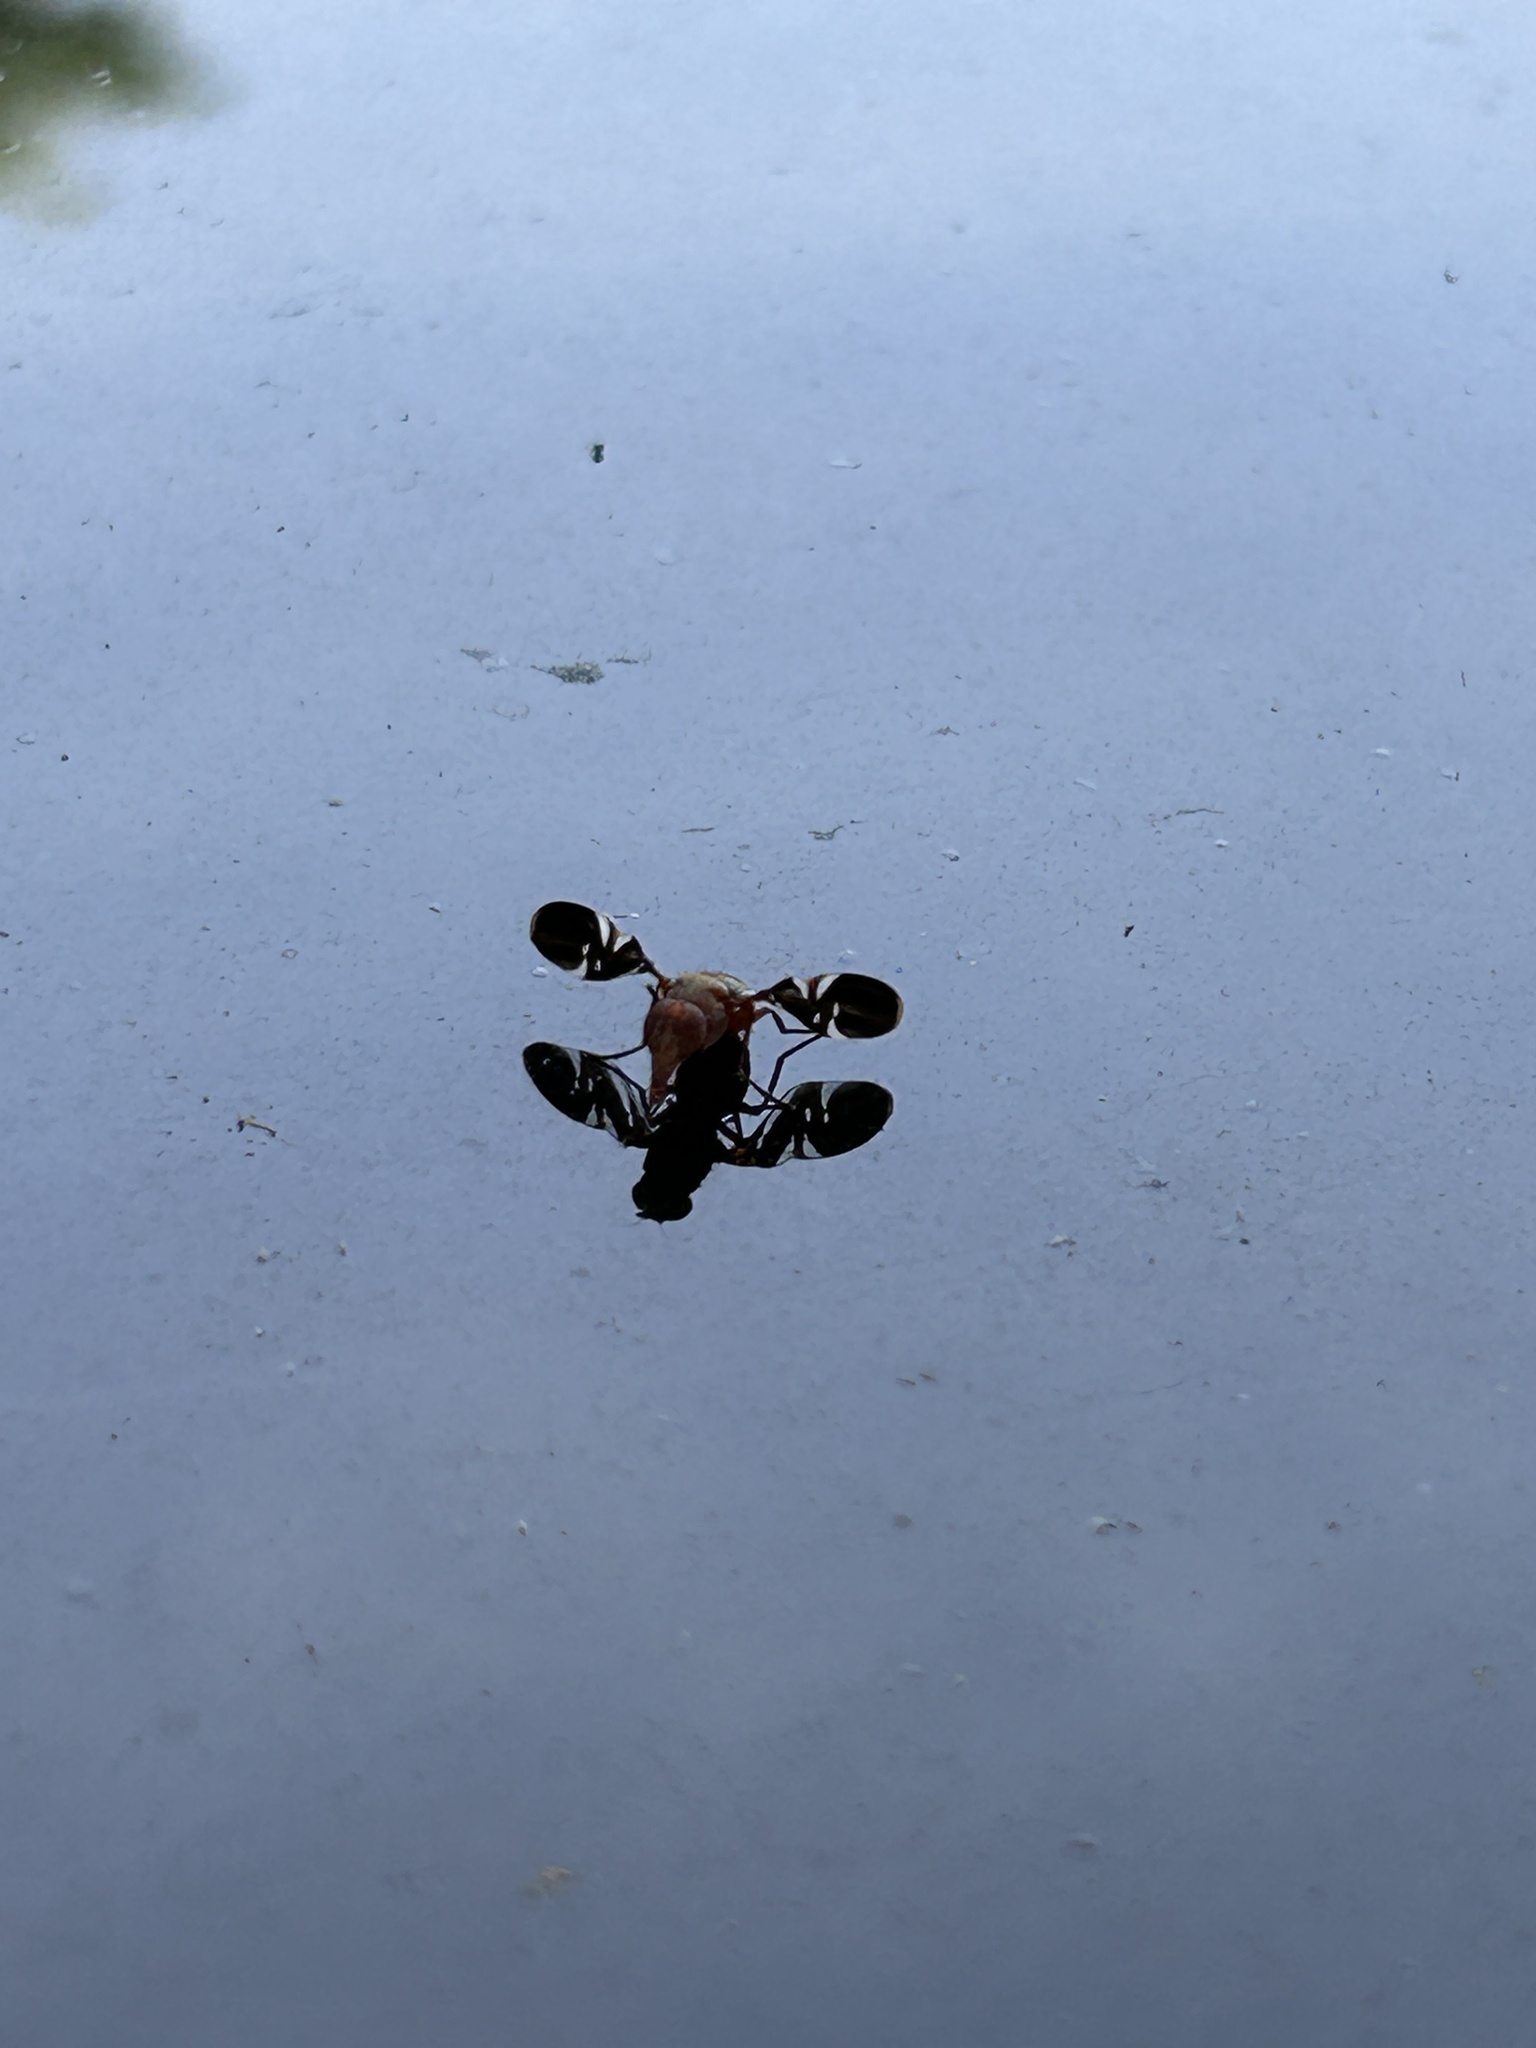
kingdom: Animalia
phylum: Arthropoda
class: Insecta
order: Diptera
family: Ulidiidae
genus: Delphinia
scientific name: Delphinia picta
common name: Common picture-winged fly
